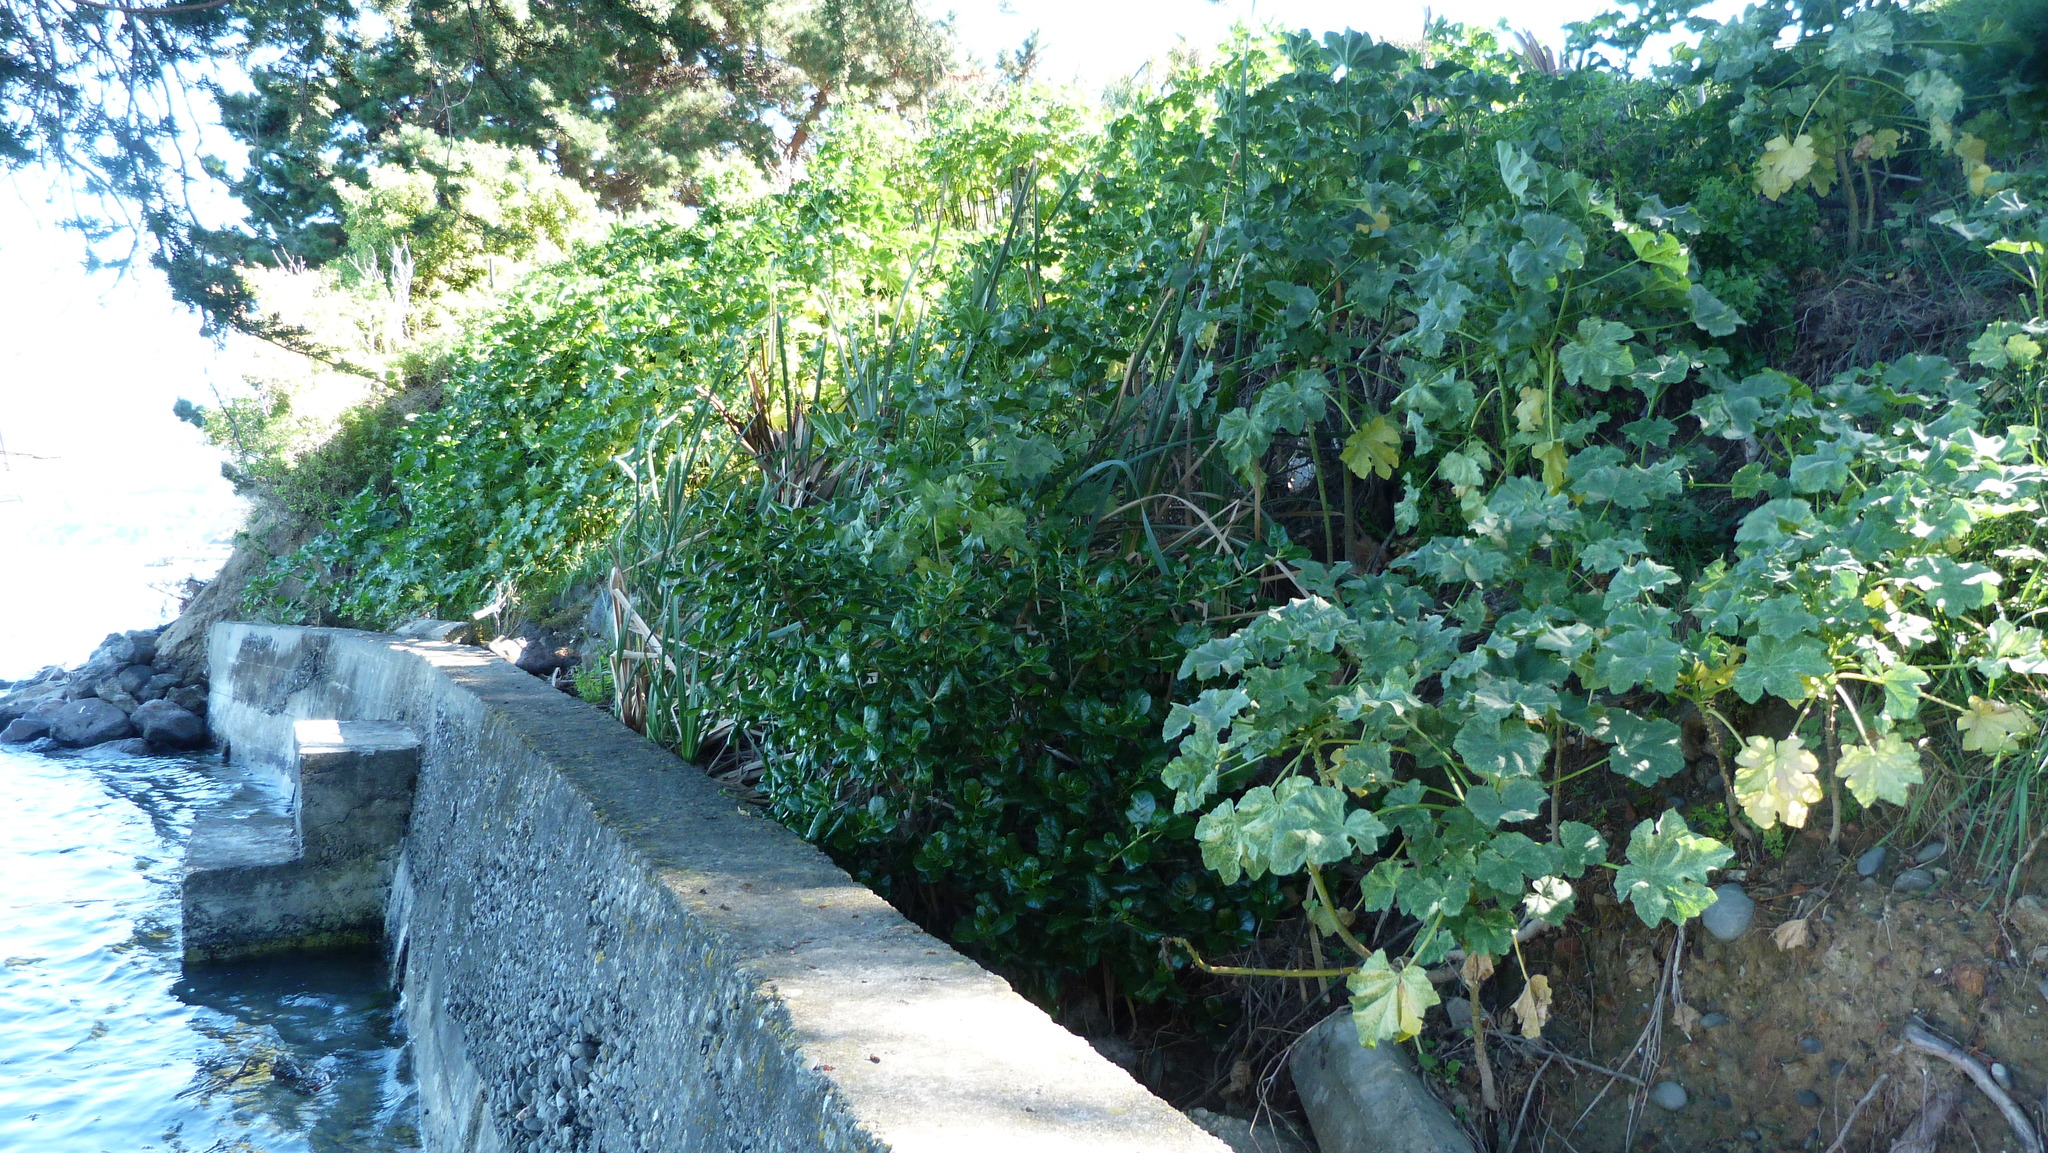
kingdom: Plantae
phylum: Tracheophyta
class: Magnoliopsida
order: Gentianales
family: Rubiaceae
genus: Coprosma
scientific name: Coprosma repens
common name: Tree bedstraw
